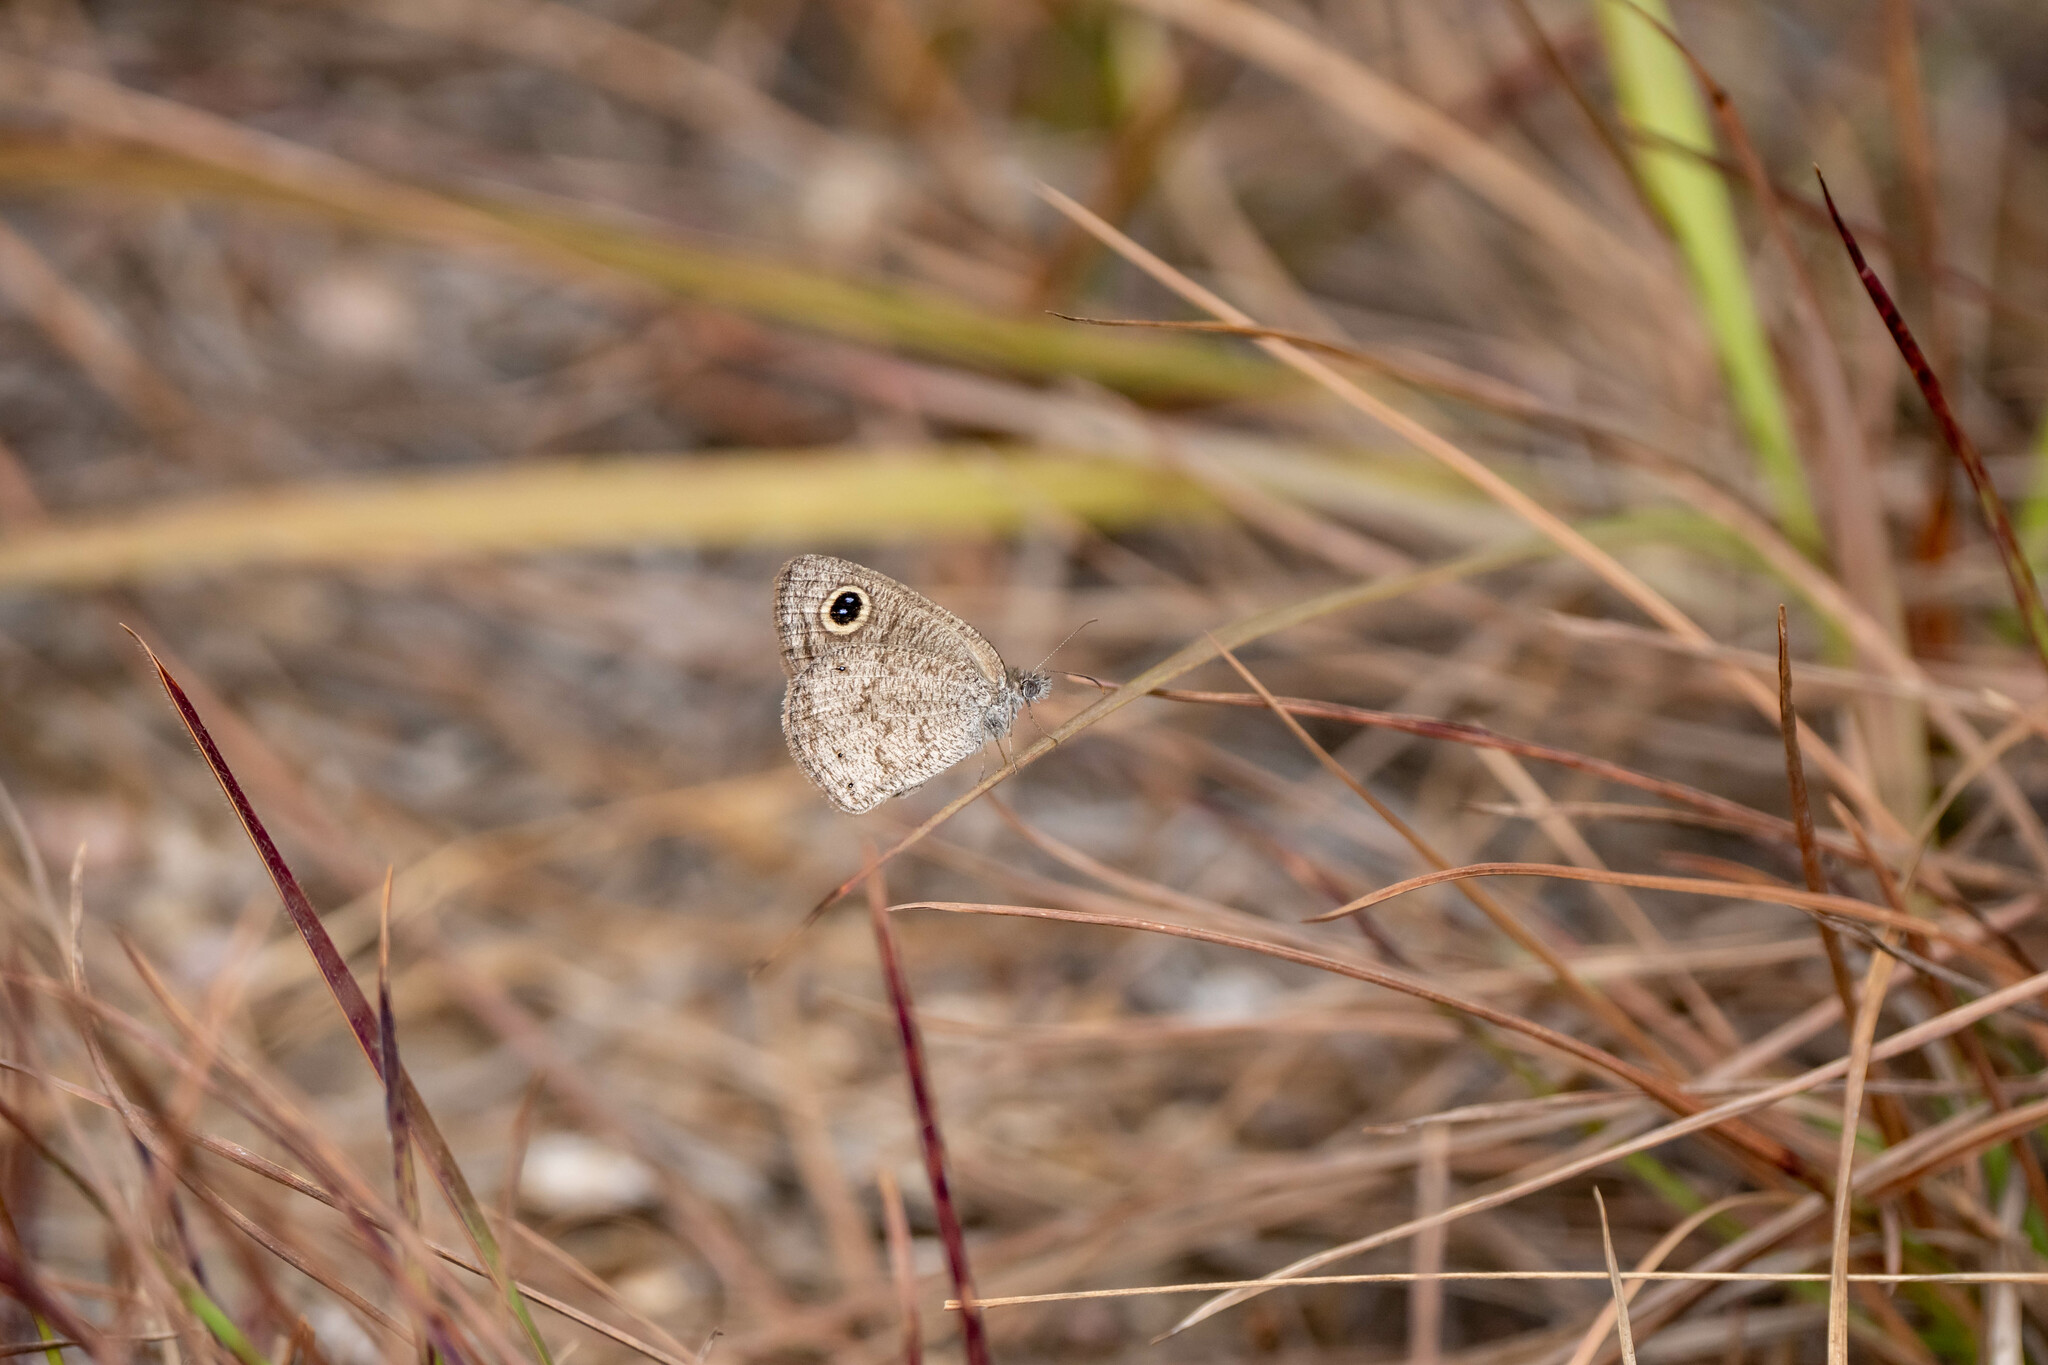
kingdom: Animalia
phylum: Arthropoda
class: Insecta
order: Lepidoptera
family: Nymphalidae
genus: Ypthima
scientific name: Ypthima asterope
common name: African ringlet
